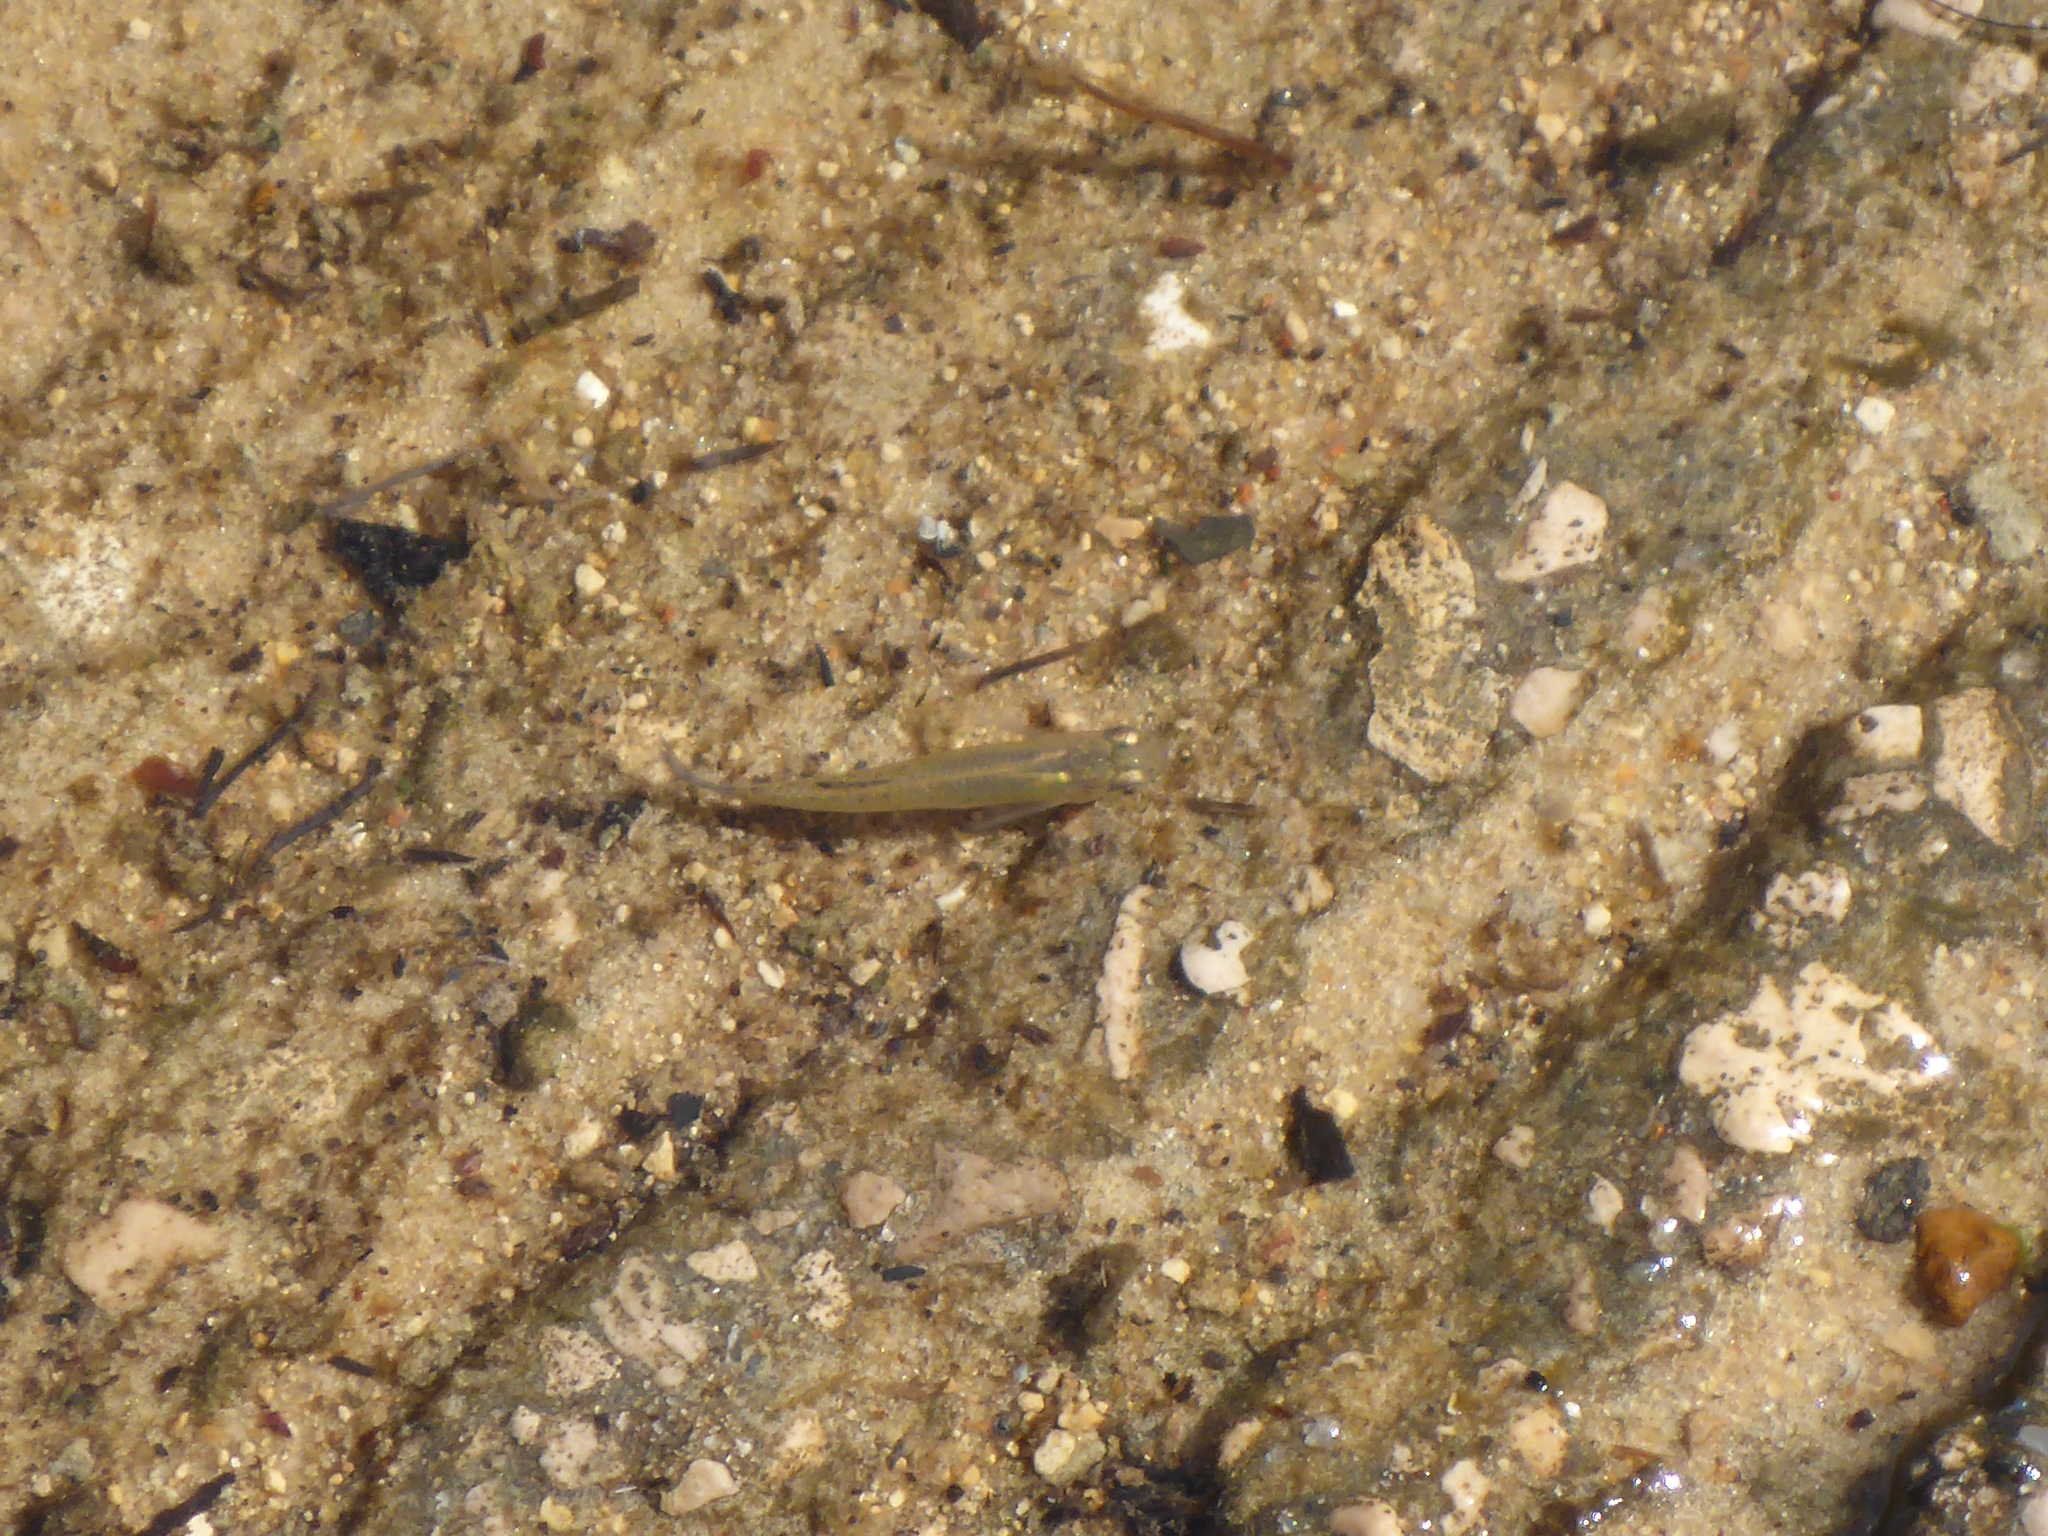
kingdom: Animalia
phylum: Chordata
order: Cyprinodontiformes
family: Poeciliidae
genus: Gambusia
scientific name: Gambusia holbrooki
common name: Eastern mosquitofish
